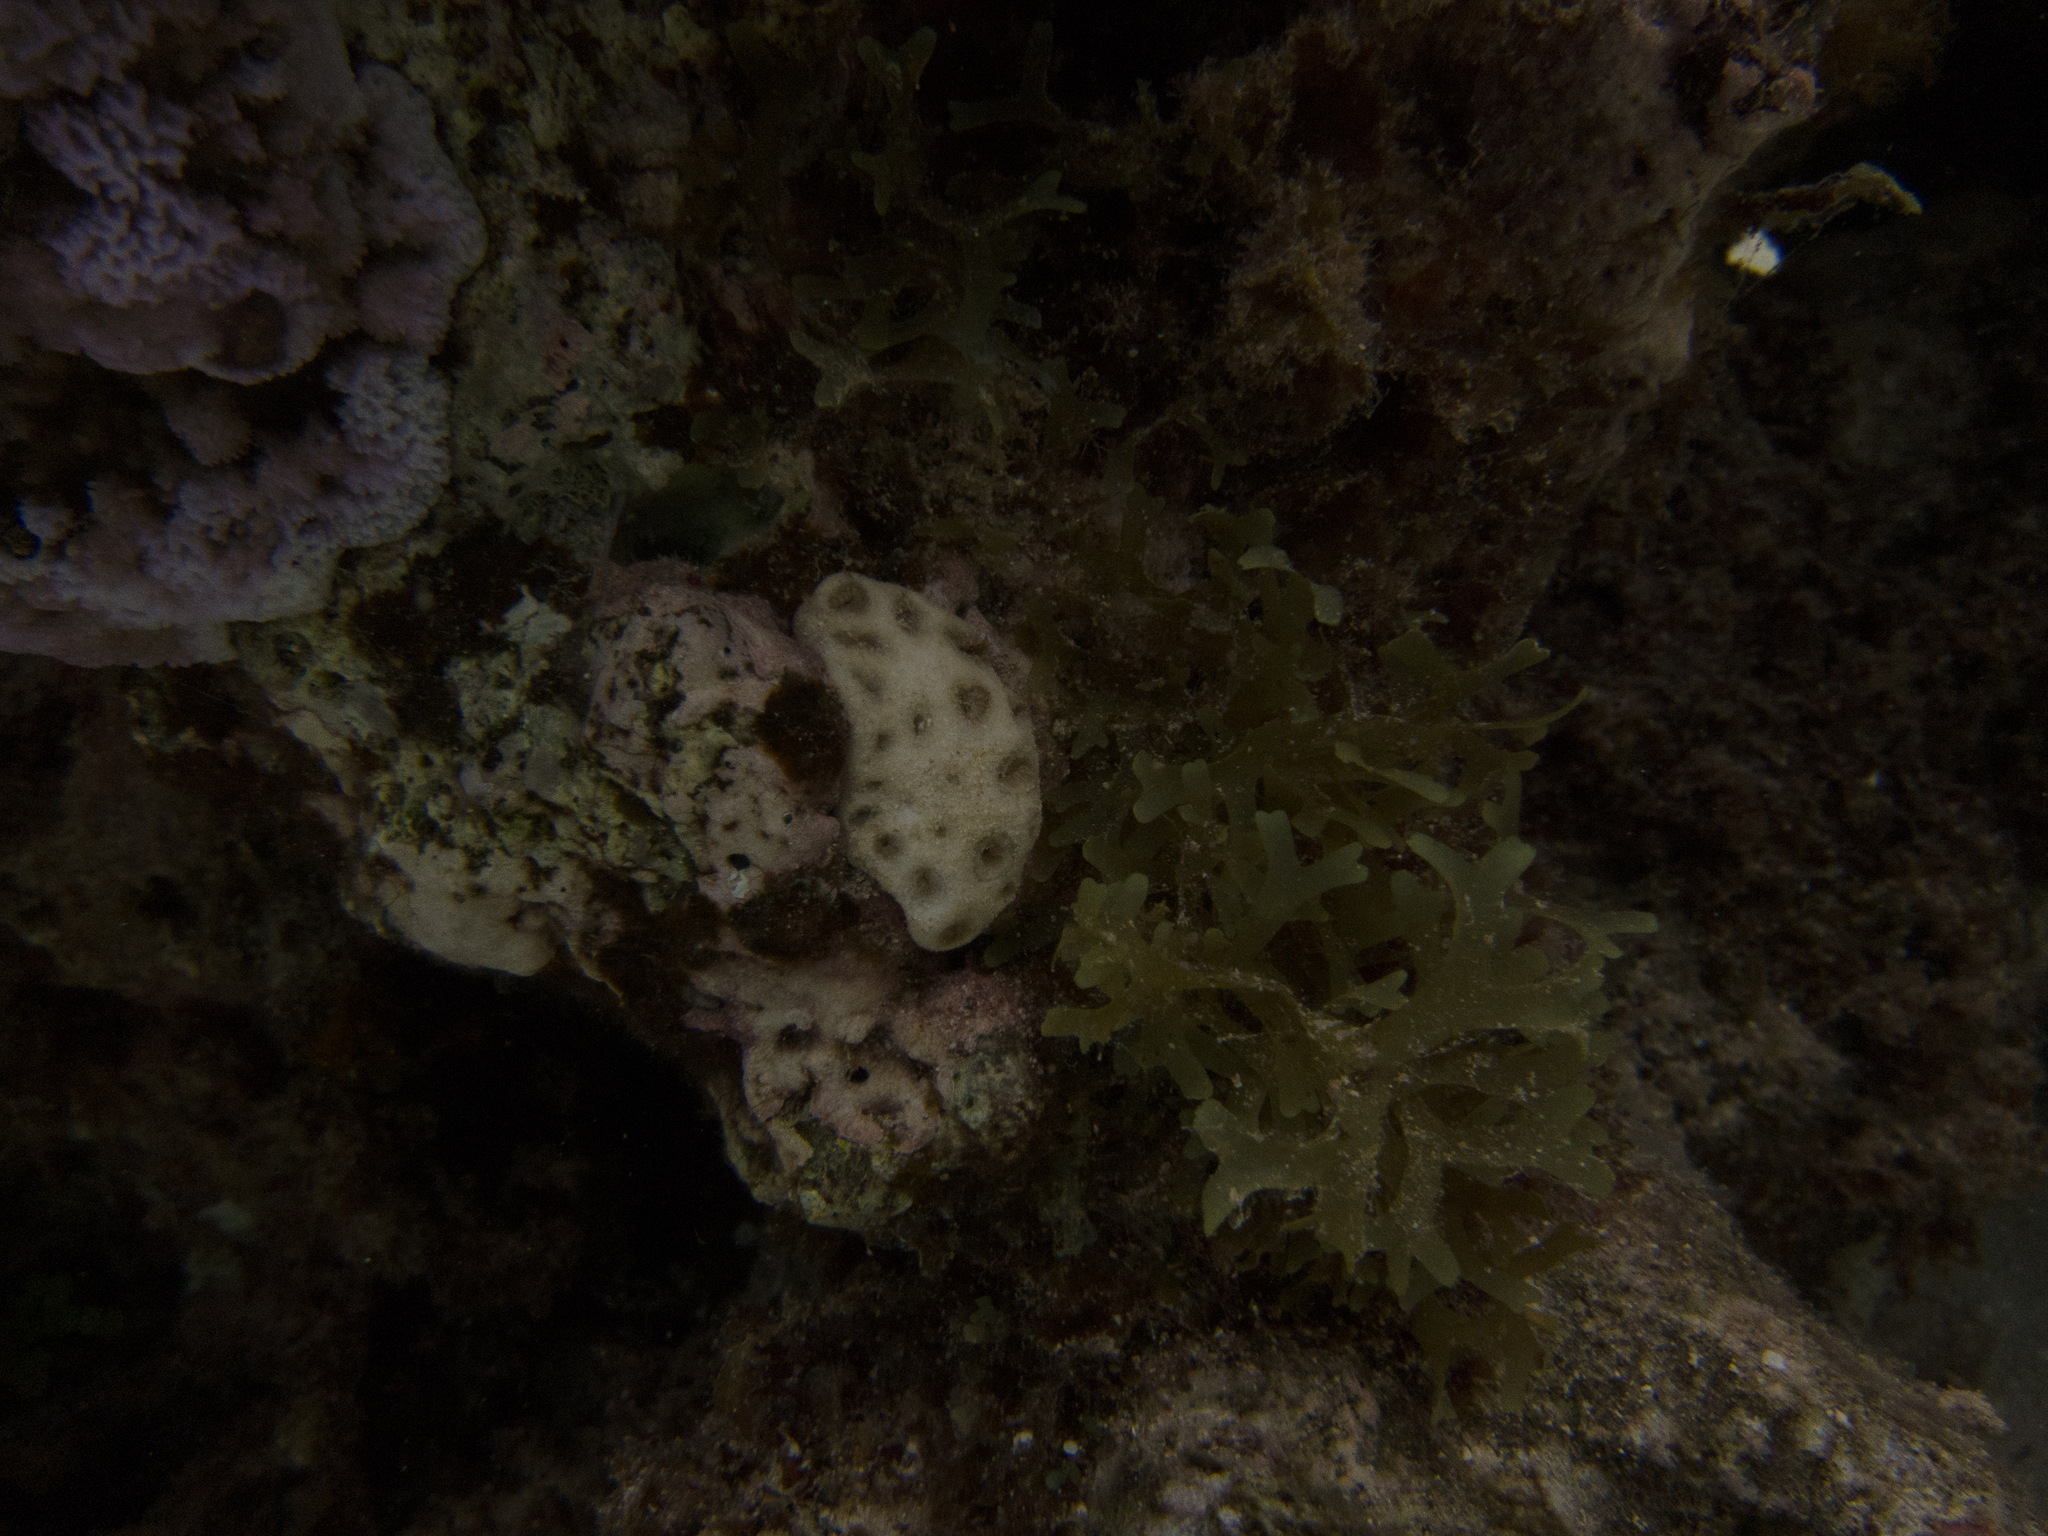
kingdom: Animalia
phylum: Cnidaria
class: Anthozoa
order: Zoantharia
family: Sphenopidae
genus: Palythoa
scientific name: Palythoa tuberculosa
